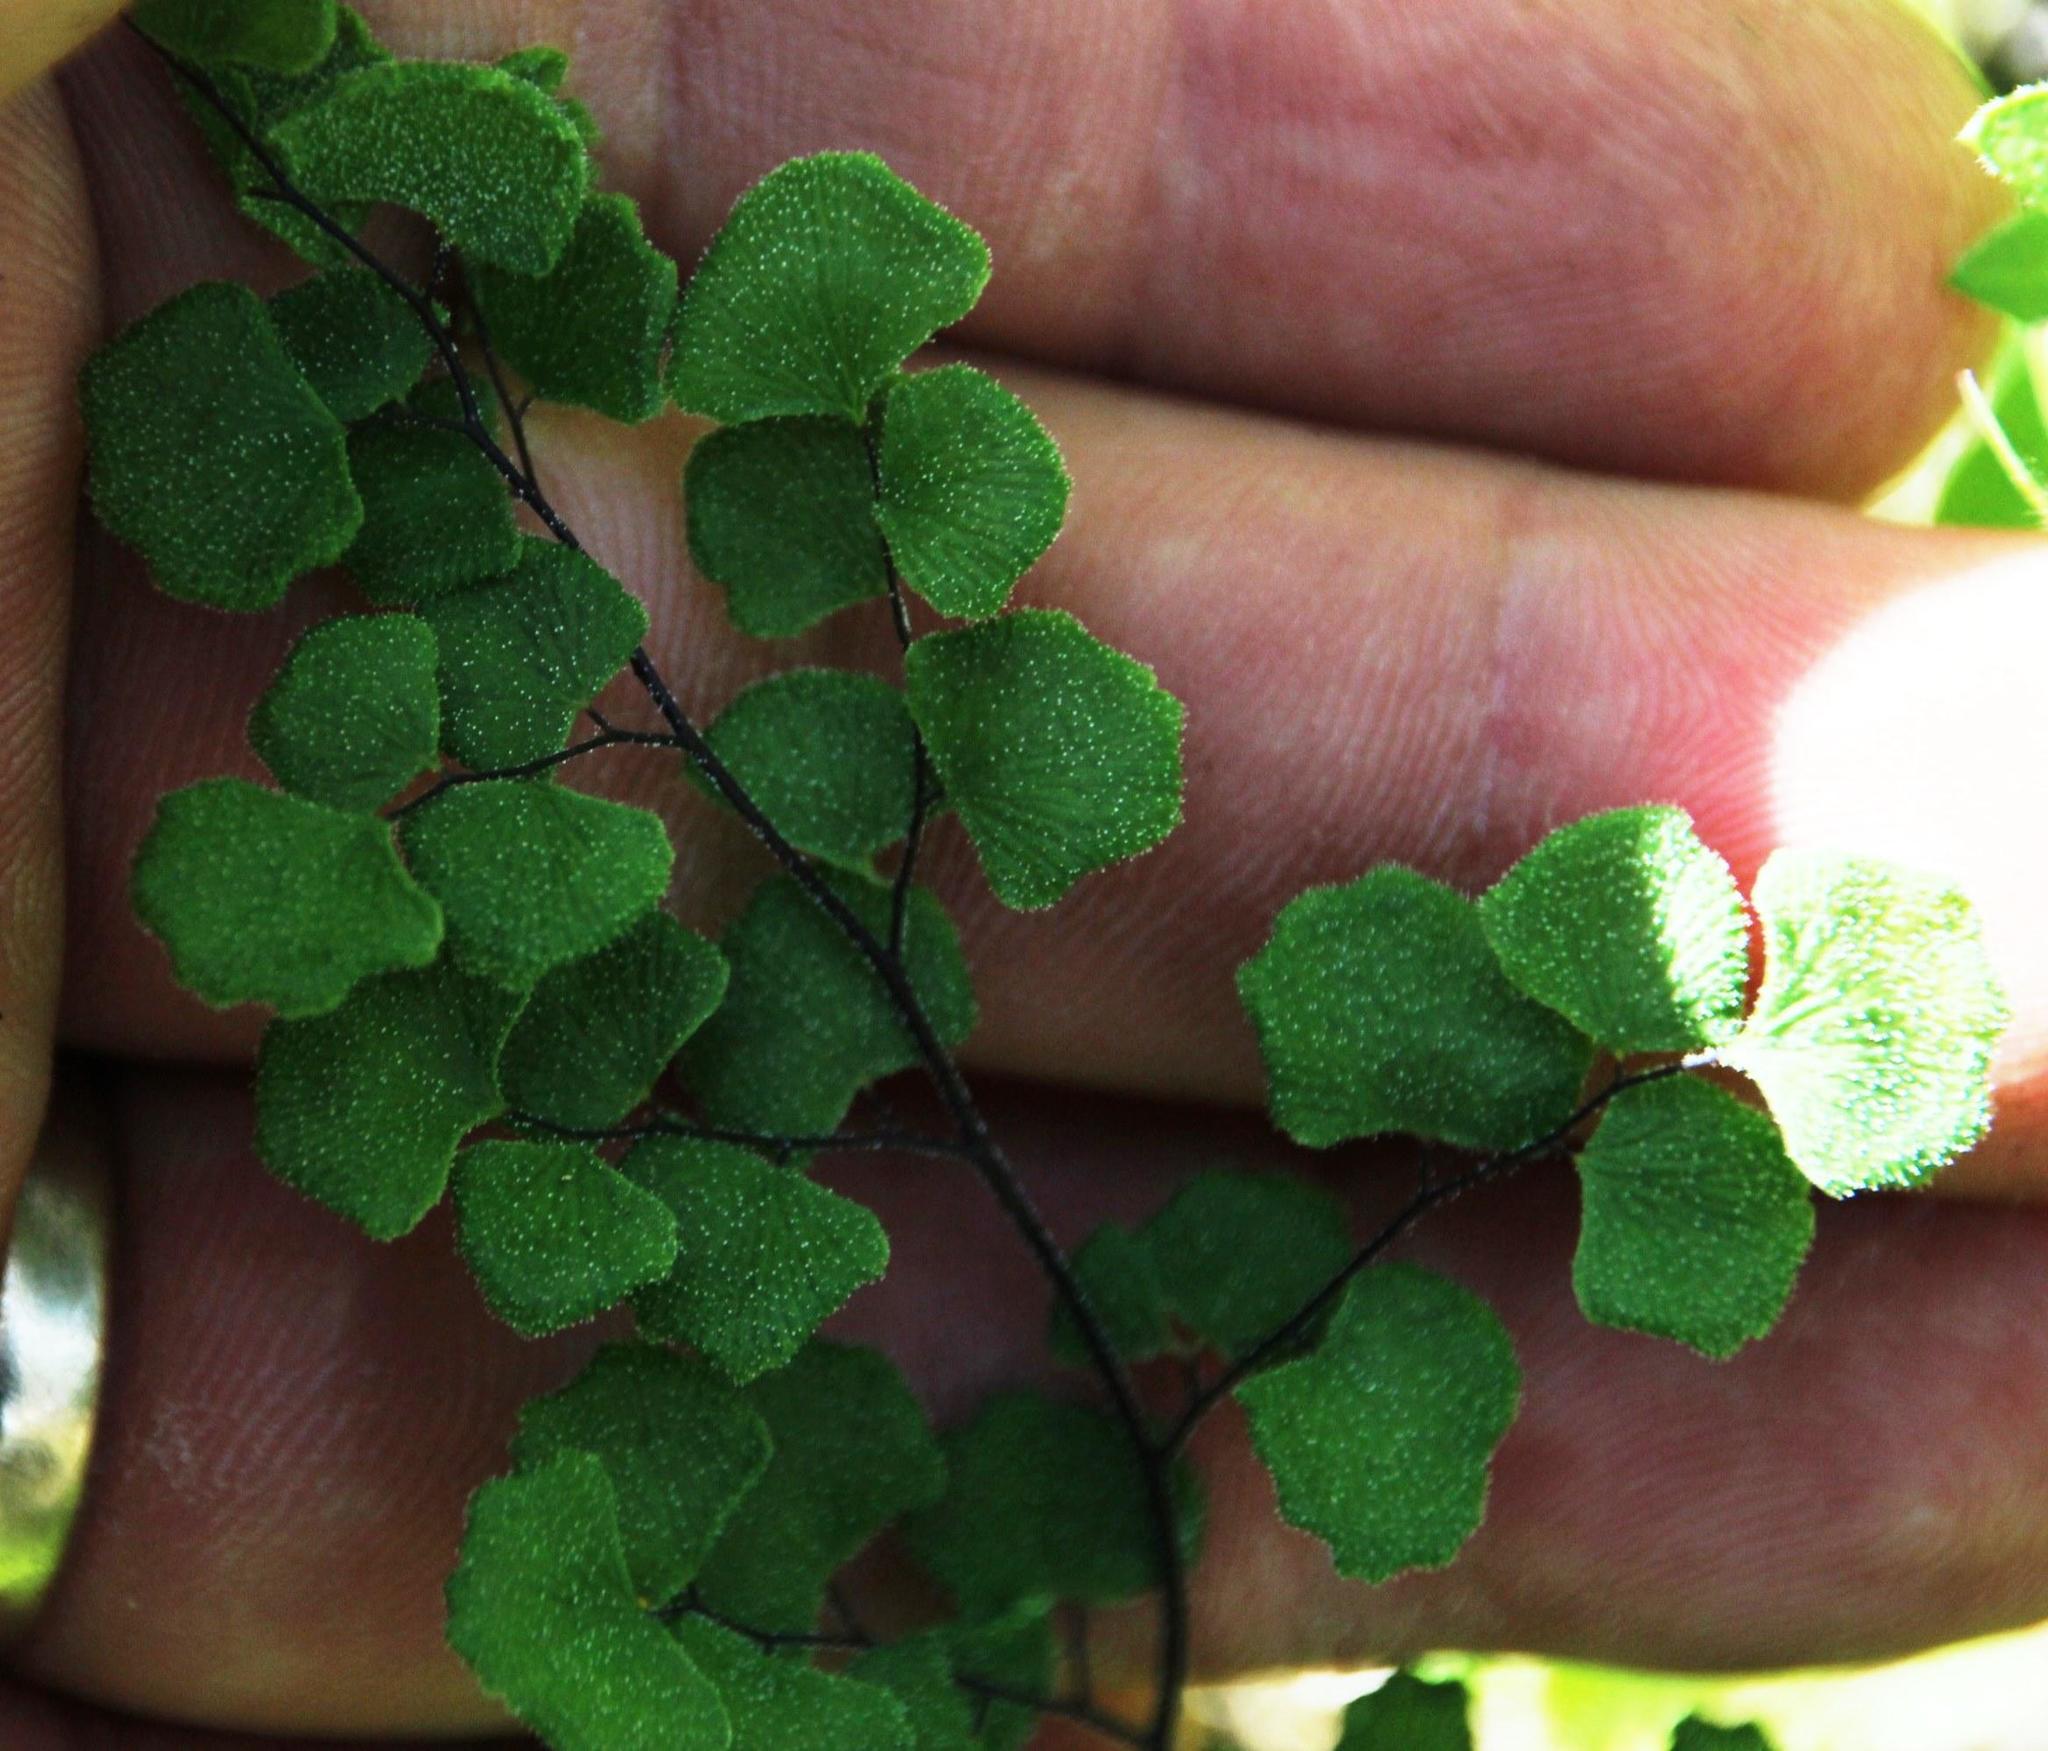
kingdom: Plantae
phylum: Tracheophyta
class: Polypodiopsida
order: Polypodiales
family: Pteridaceae
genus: Adiantum
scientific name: Adiantum chilense
